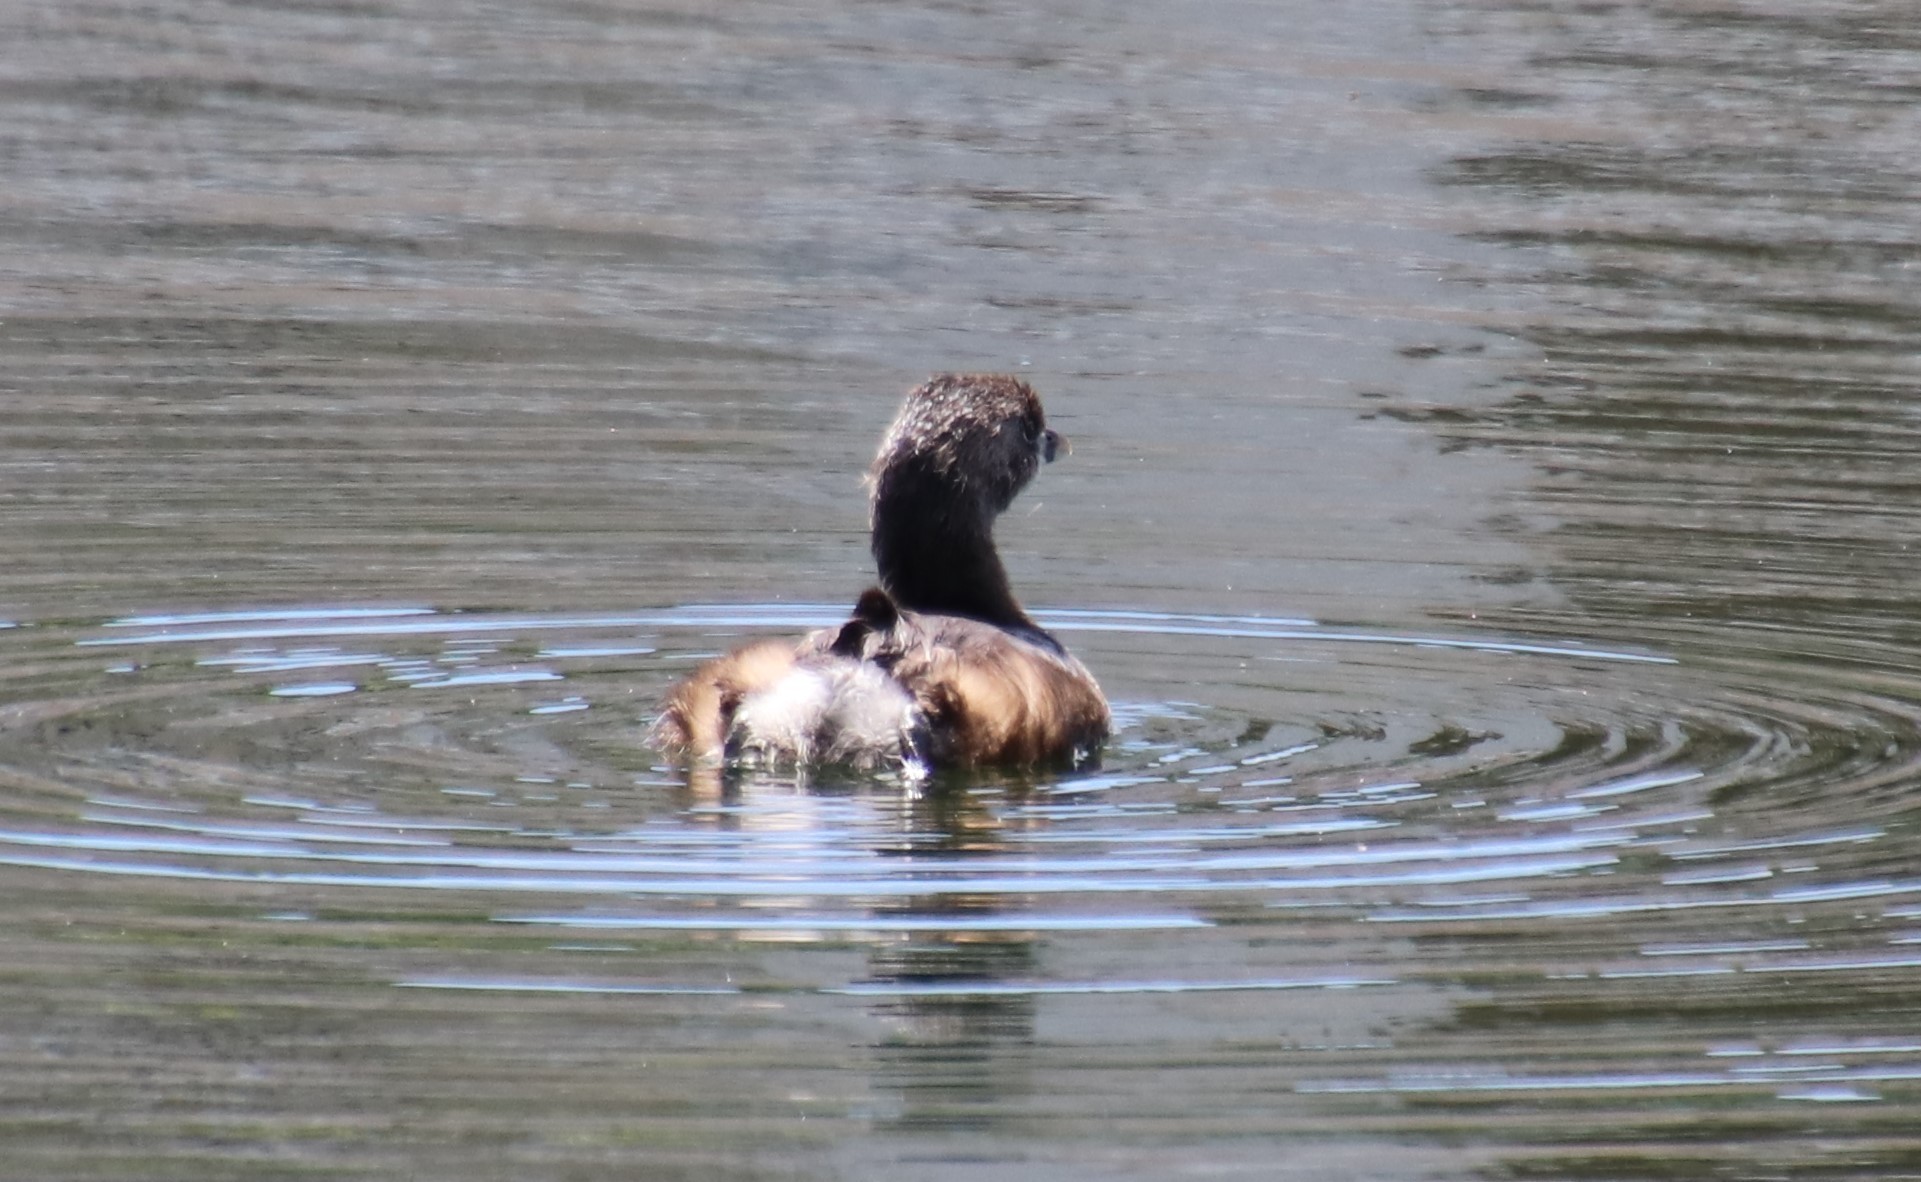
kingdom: Animalia
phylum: Chordata
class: Aves
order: Podicipediformes
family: Podicipedidae
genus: Podilymbus
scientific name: Podilymbus podiceps
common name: Pied-billed grebe
